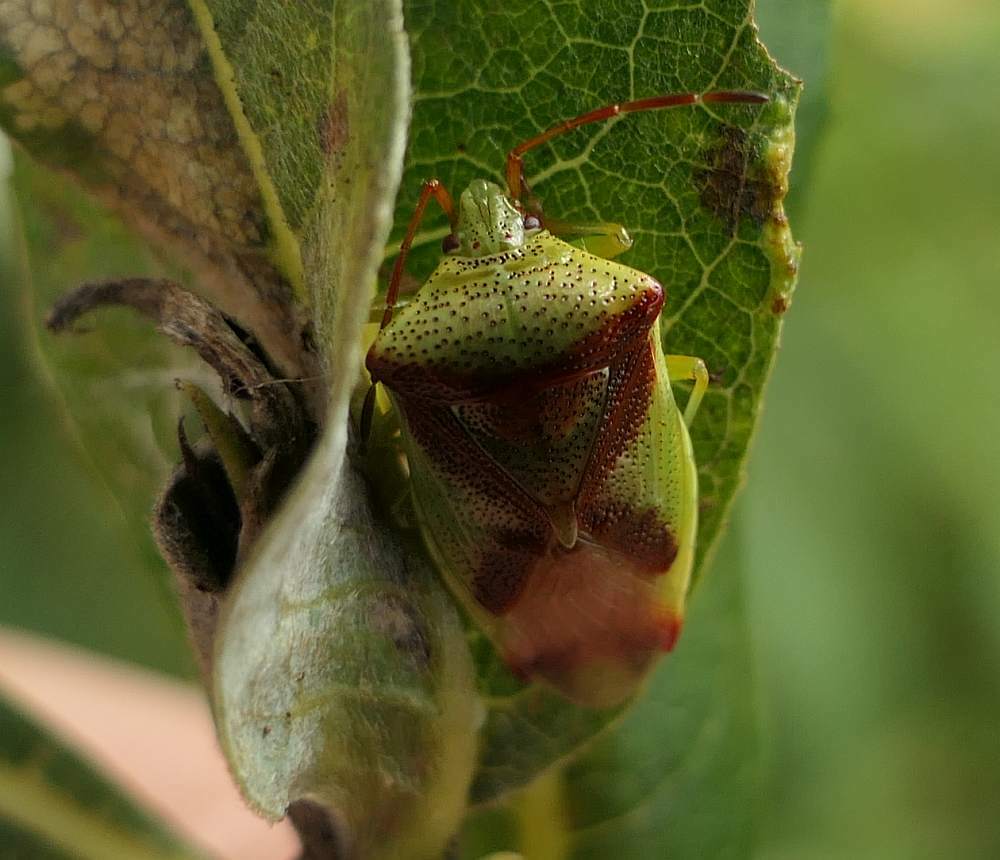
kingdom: Animalia
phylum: Arthropoda
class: Insecta
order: Hemiptera
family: Acanthosomatidae
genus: Elasmostethus
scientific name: Elasmostethus cruciatus
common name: Red-cross shield bug
